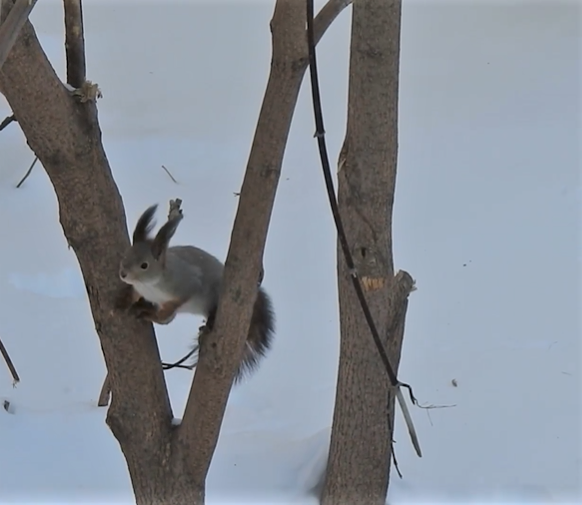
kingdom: Animalia
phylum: Chordata
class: Mammalia
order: Rodentia
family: Sciuridae
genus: Sciurus
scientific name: Sciurus vulgaris
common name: Eurasian red squirrel
